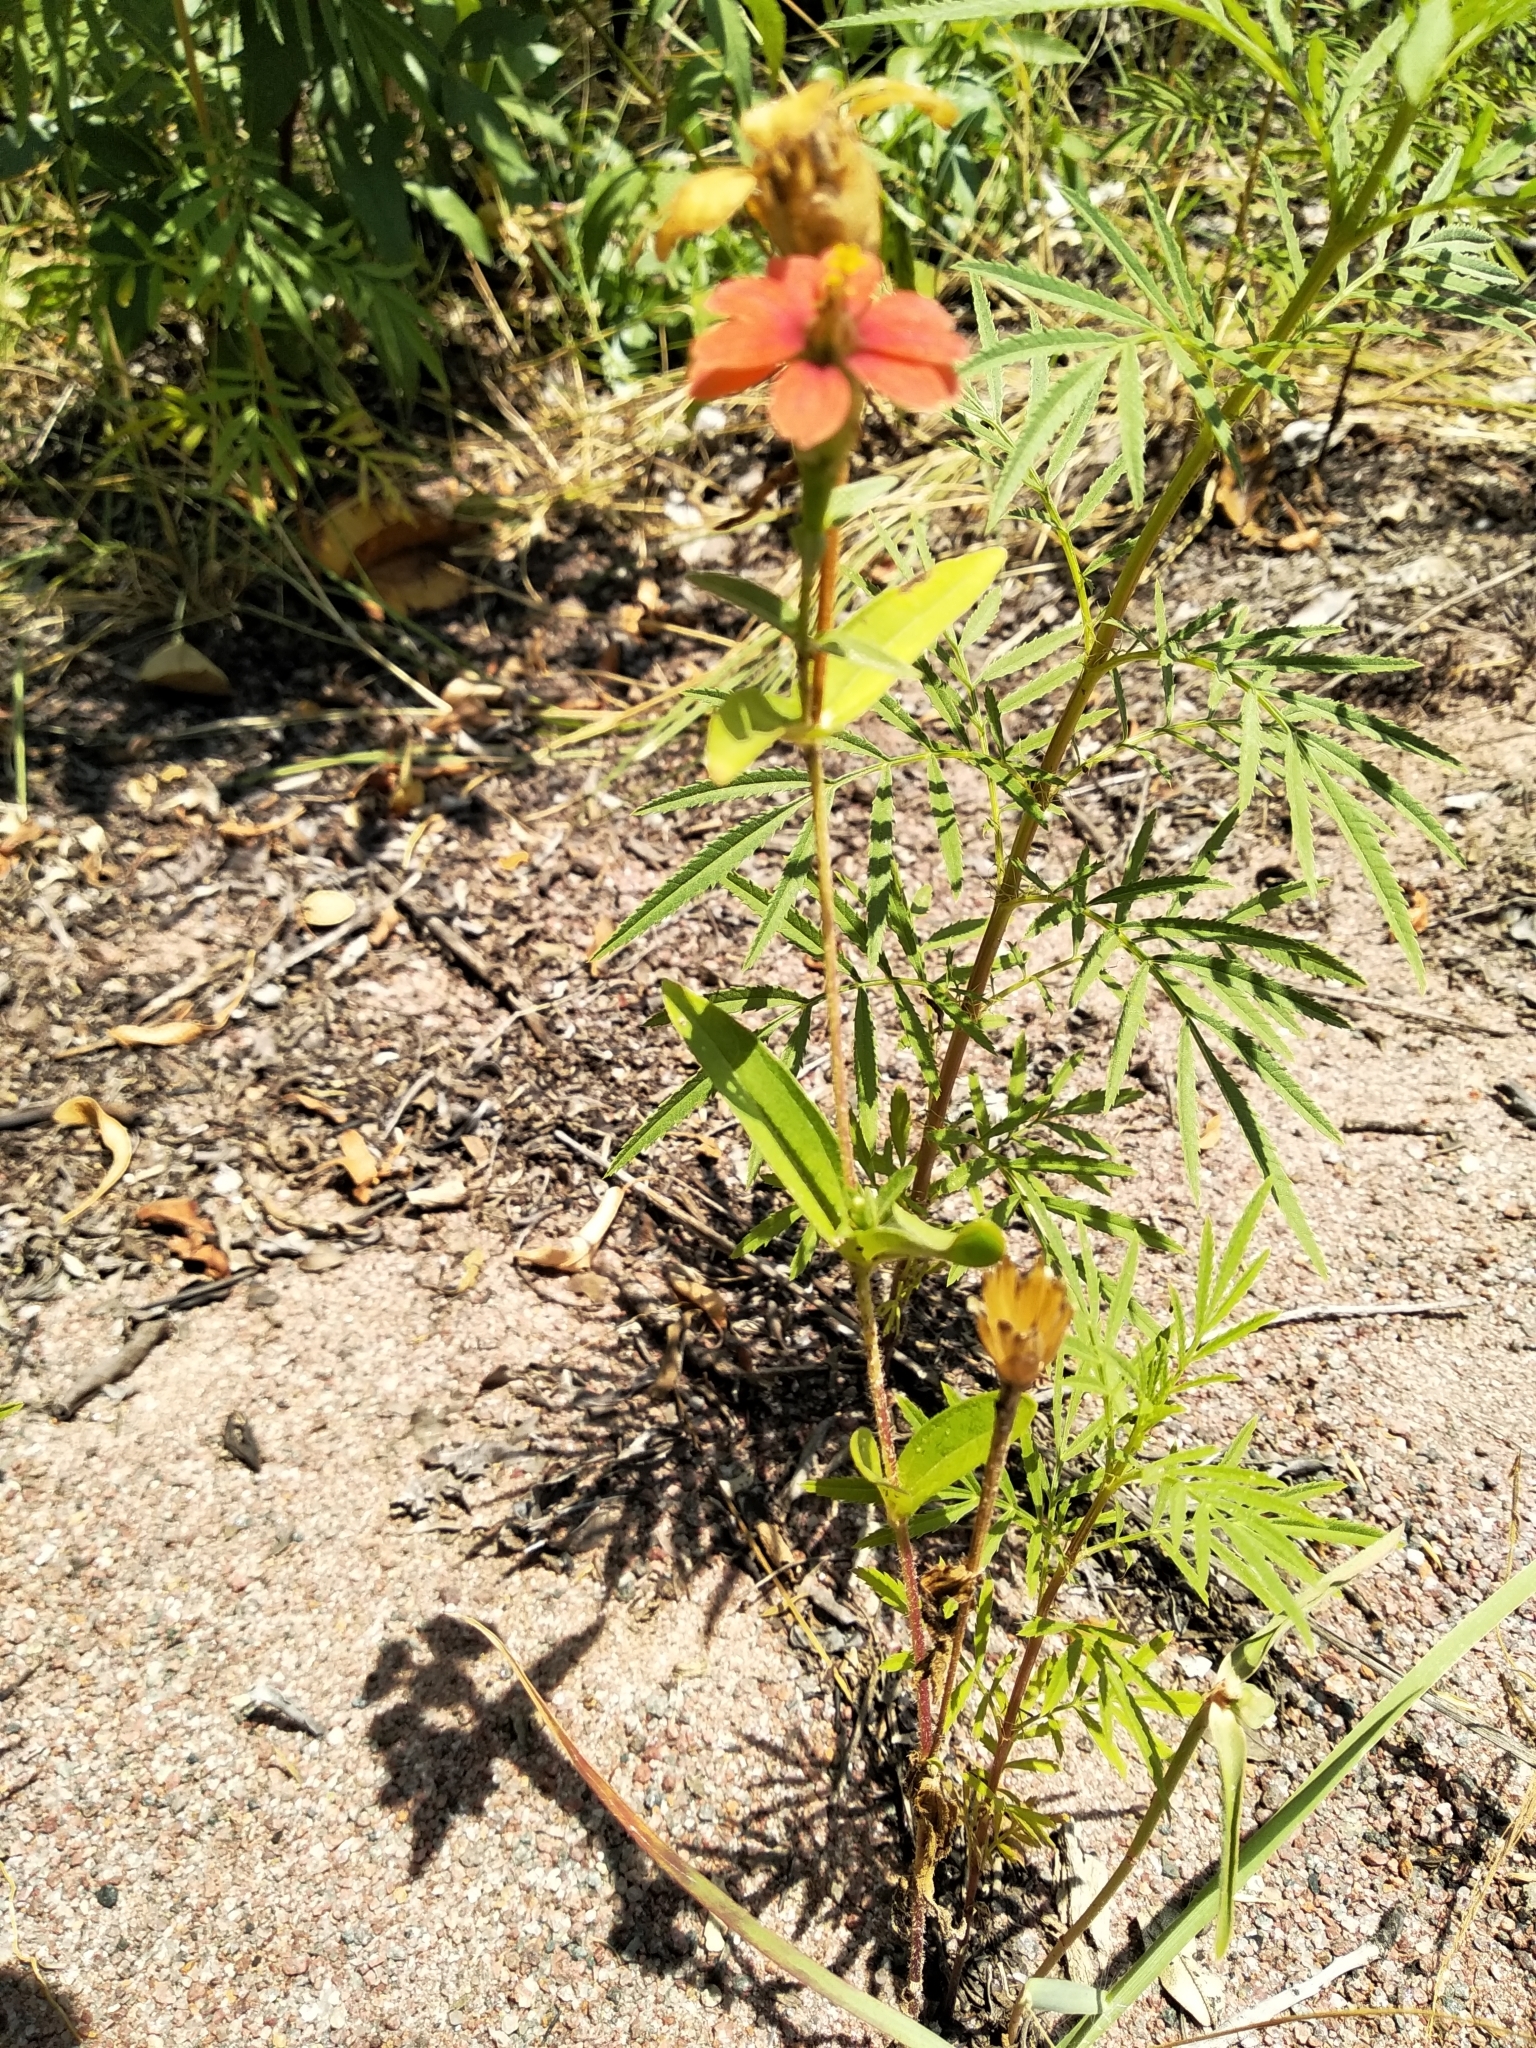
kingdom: Plantae
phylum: Tracheophyta
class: Magnoliopsida
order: Asterales
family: Asteraceae
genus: Zinnia
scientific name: Zinnia peruviana
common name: Peruvian zinnia
